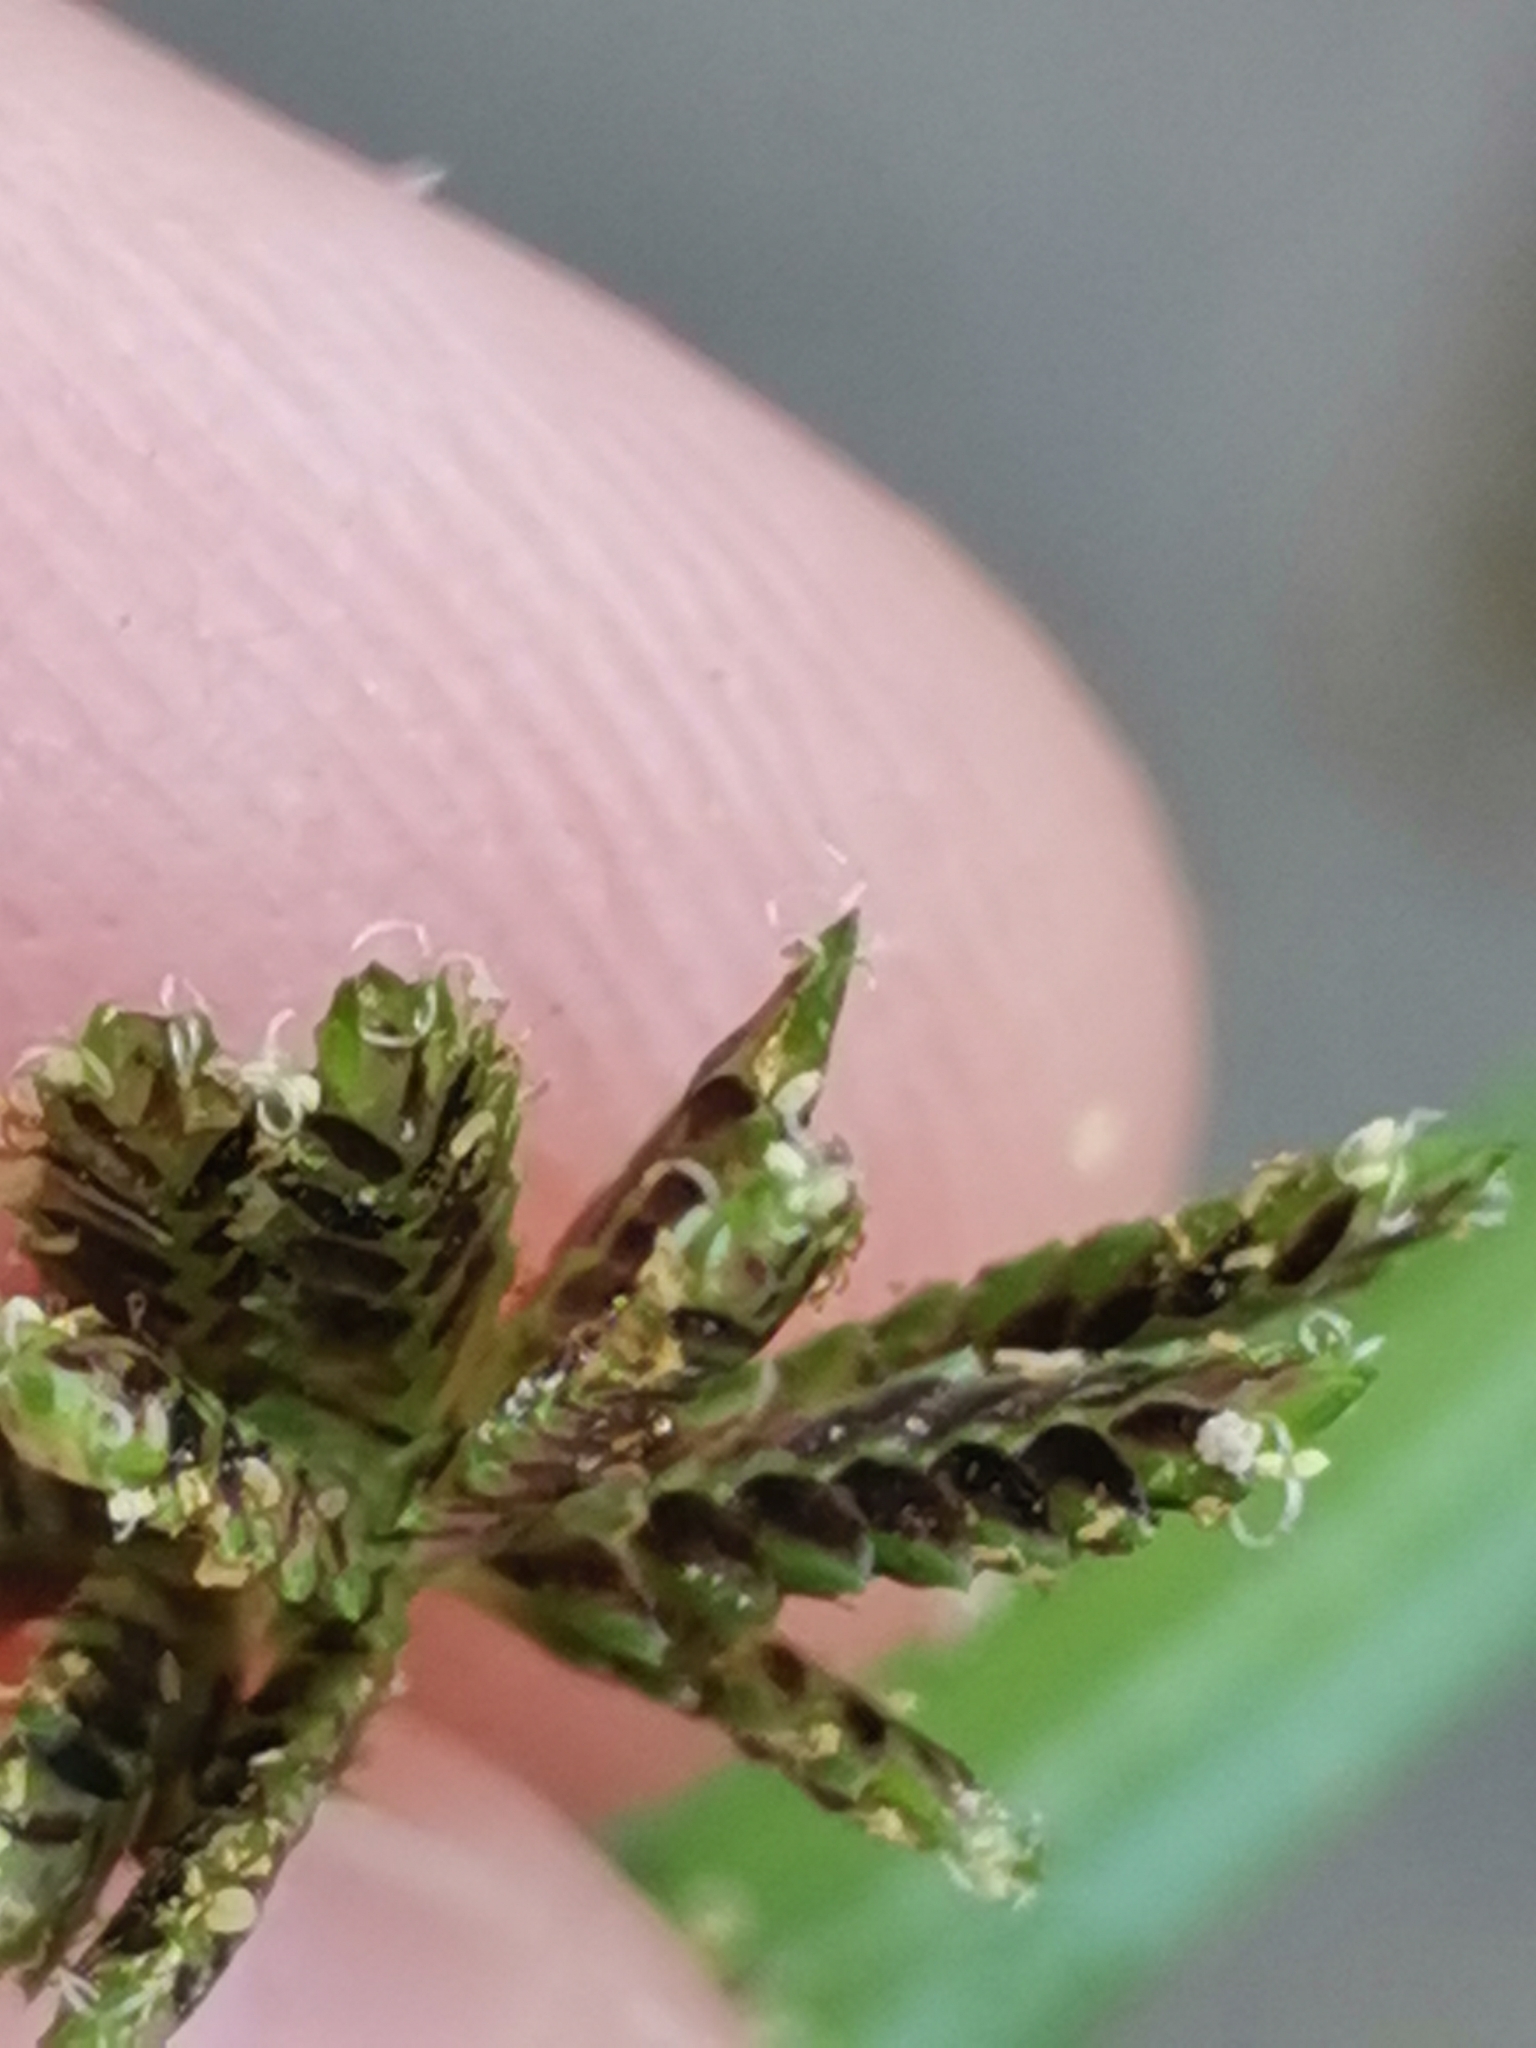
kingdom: Plantae
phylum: Tracheophyta
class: Liliopsida
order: Poales
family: Cyperaceae
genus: Cyperus
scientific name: Cyperus fuscus
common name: Brown galingale
